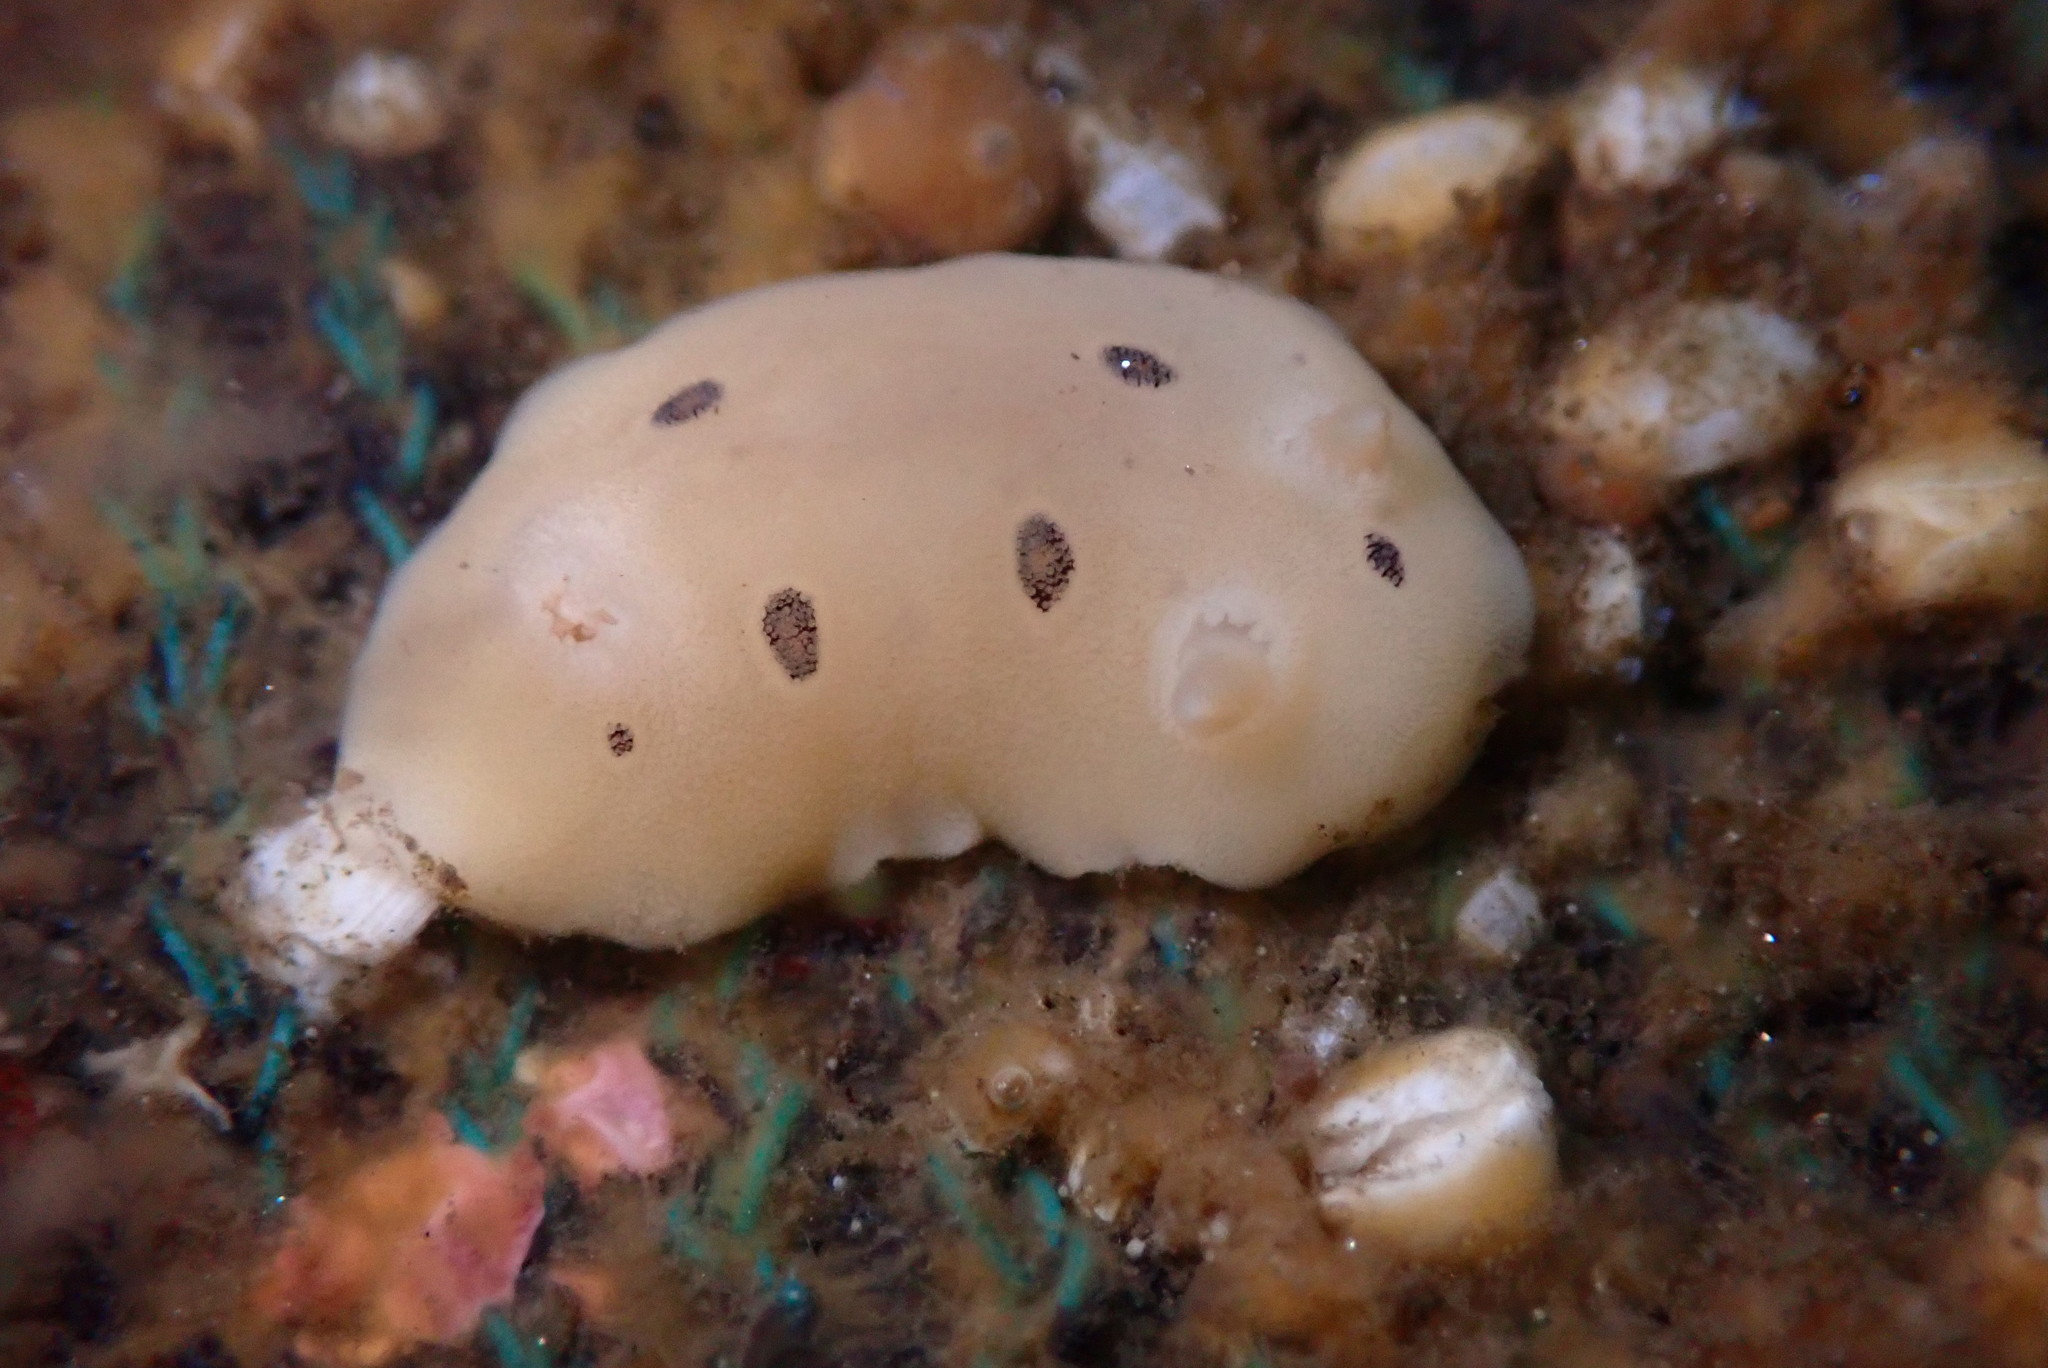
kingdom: Animalia
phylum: Mollusca
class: Gastropoda
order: Nudibranchia
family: Discodorididae
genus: Diaulula
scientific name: Diaulula sandiegensis
